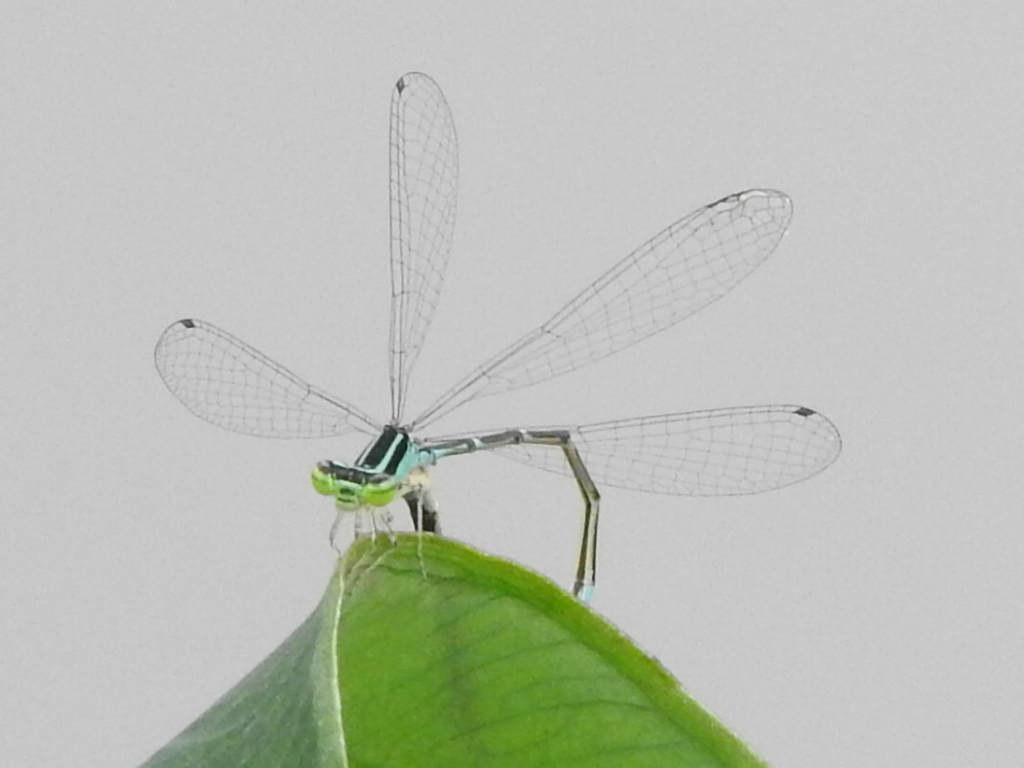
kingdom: Animalia
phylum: Arthropoda
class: Insecta
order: Odonata
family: Coenagrionidae
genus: Enallagma
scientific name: Enallagma exsulans
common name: Stream bluet
